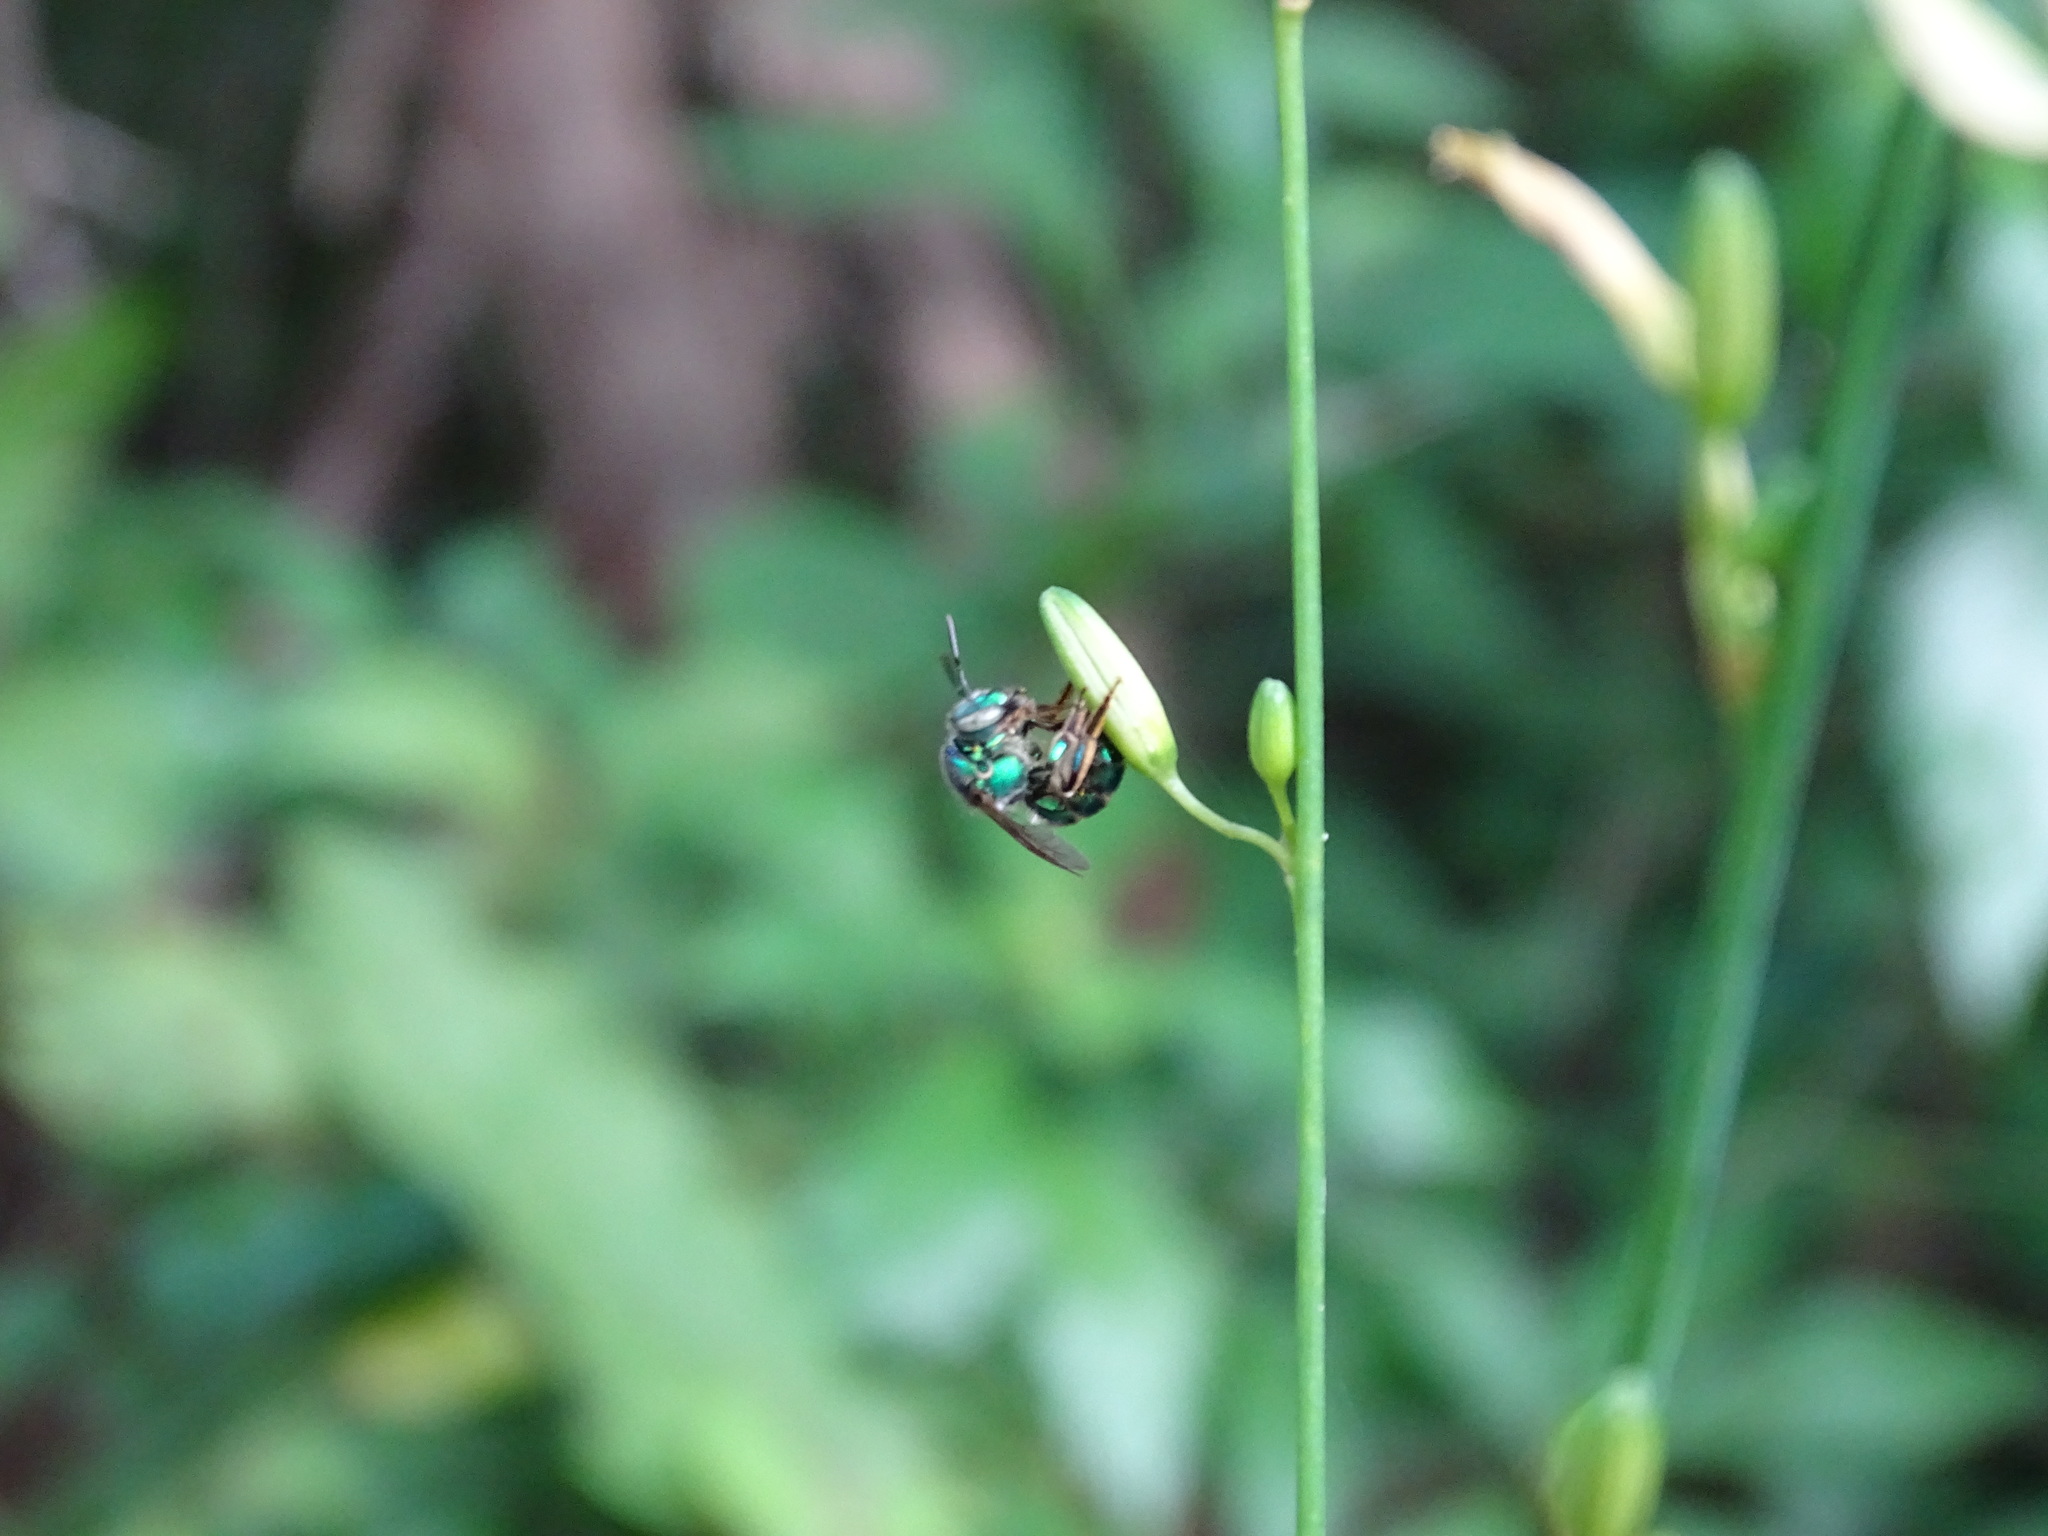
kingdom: Plantae
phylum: Tracheophyta
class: Liliopsida
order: Asparagales
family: Asparagaceae
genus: Echeandia
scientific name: Echeandia luteola
